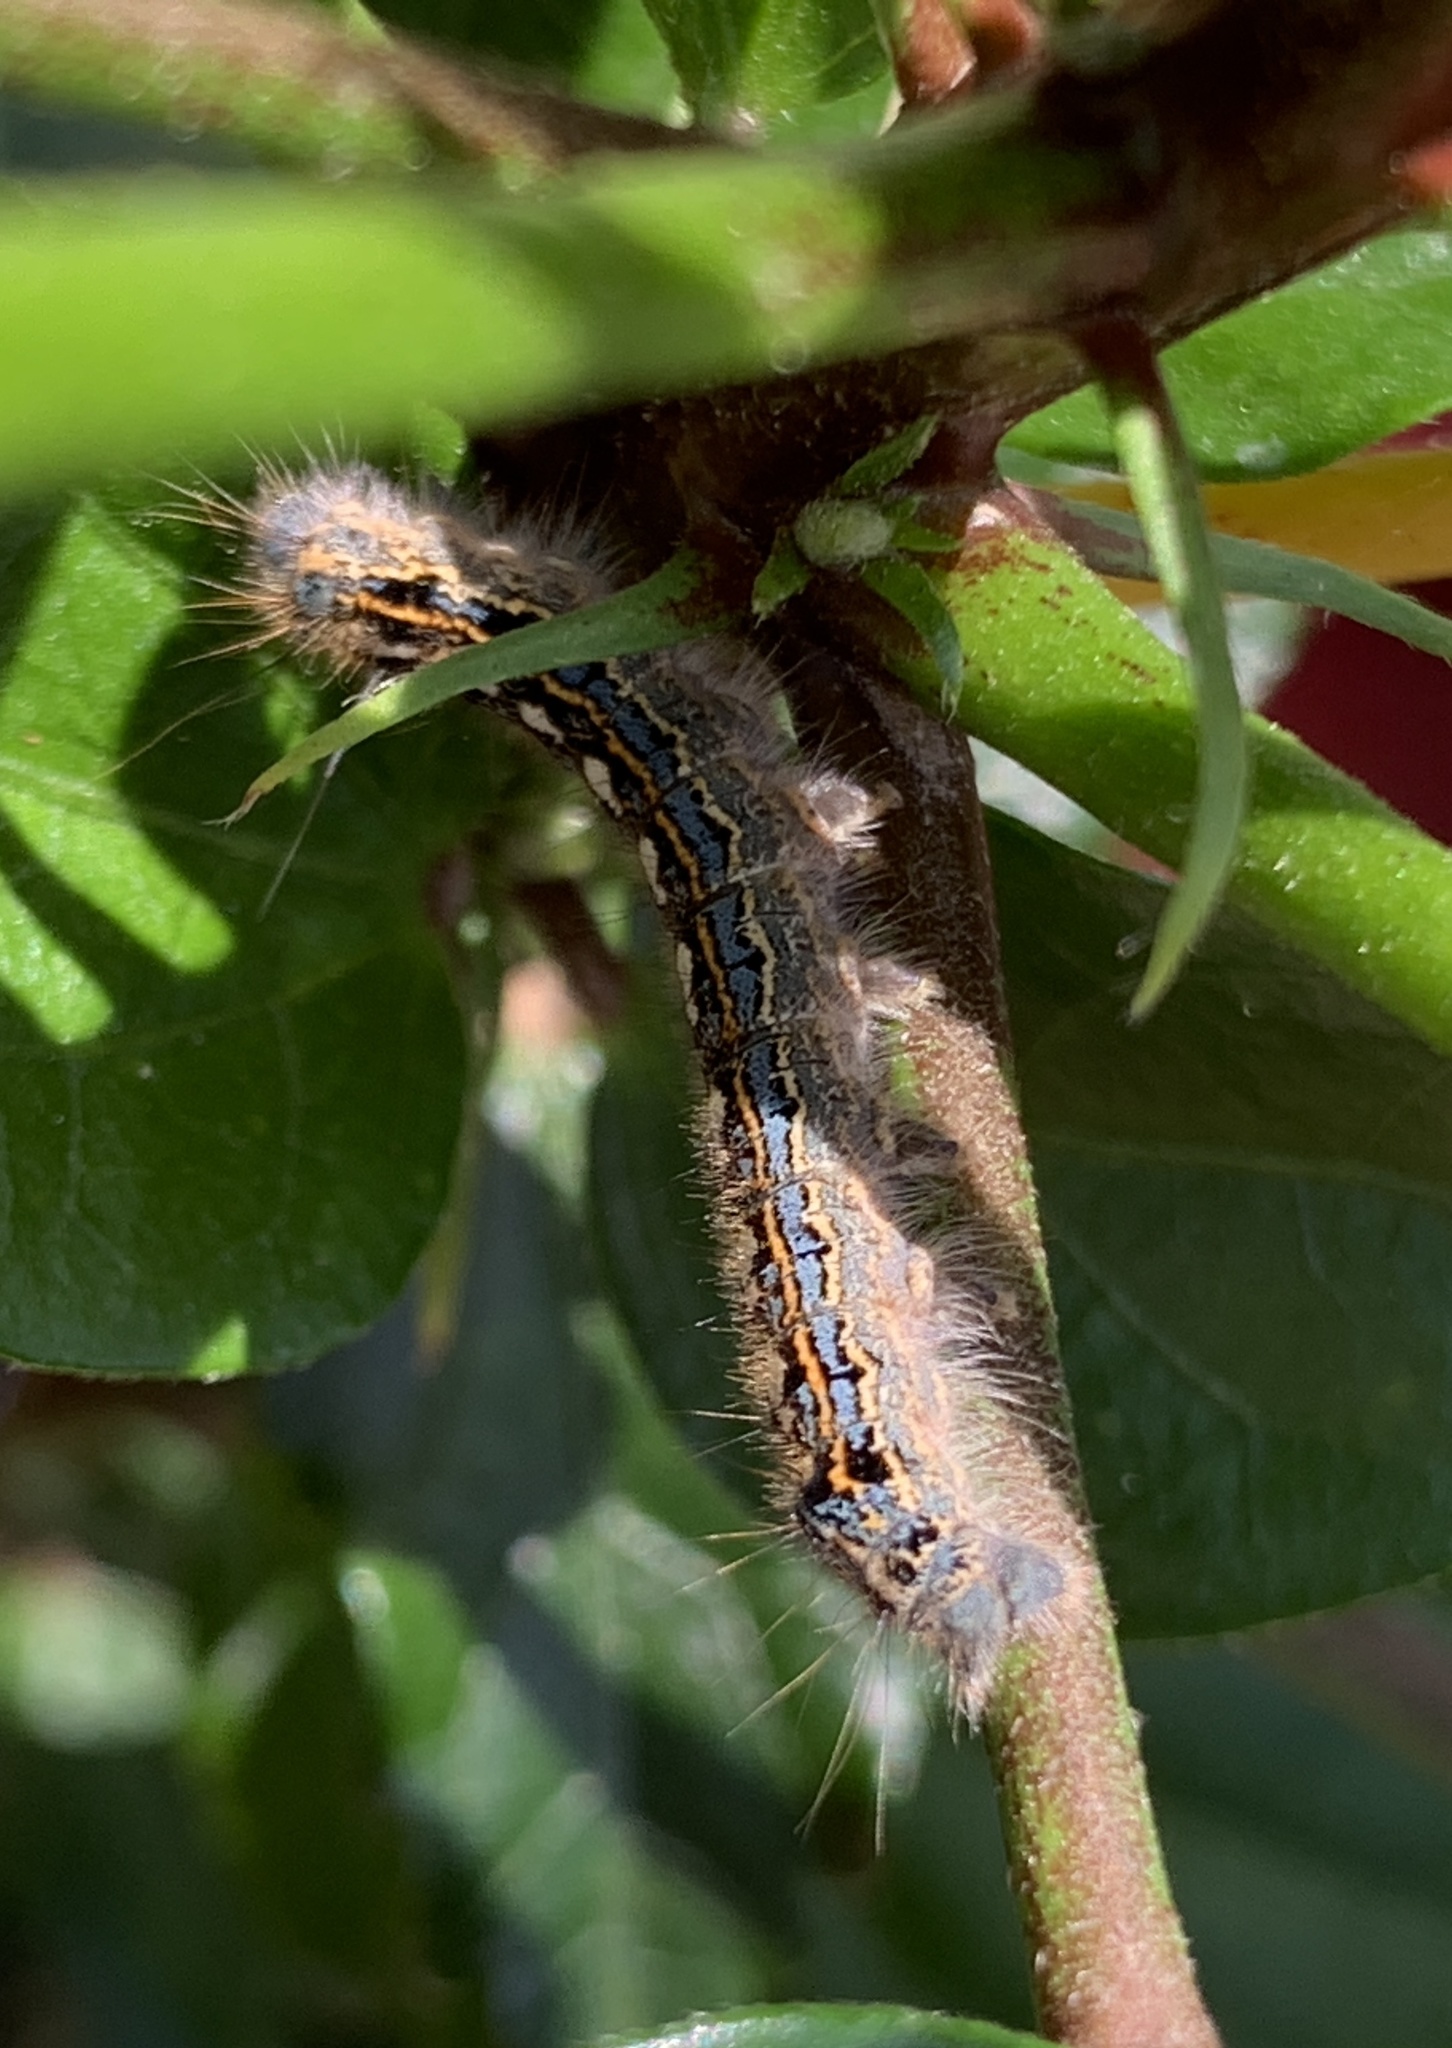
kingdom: Animalia
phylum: Arthropoda
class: Insecta
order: Lepidoptera
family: Lasiocampidae
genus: Malacosoma
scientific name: Malacosoma disstria
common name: Forest tent caterpillar
